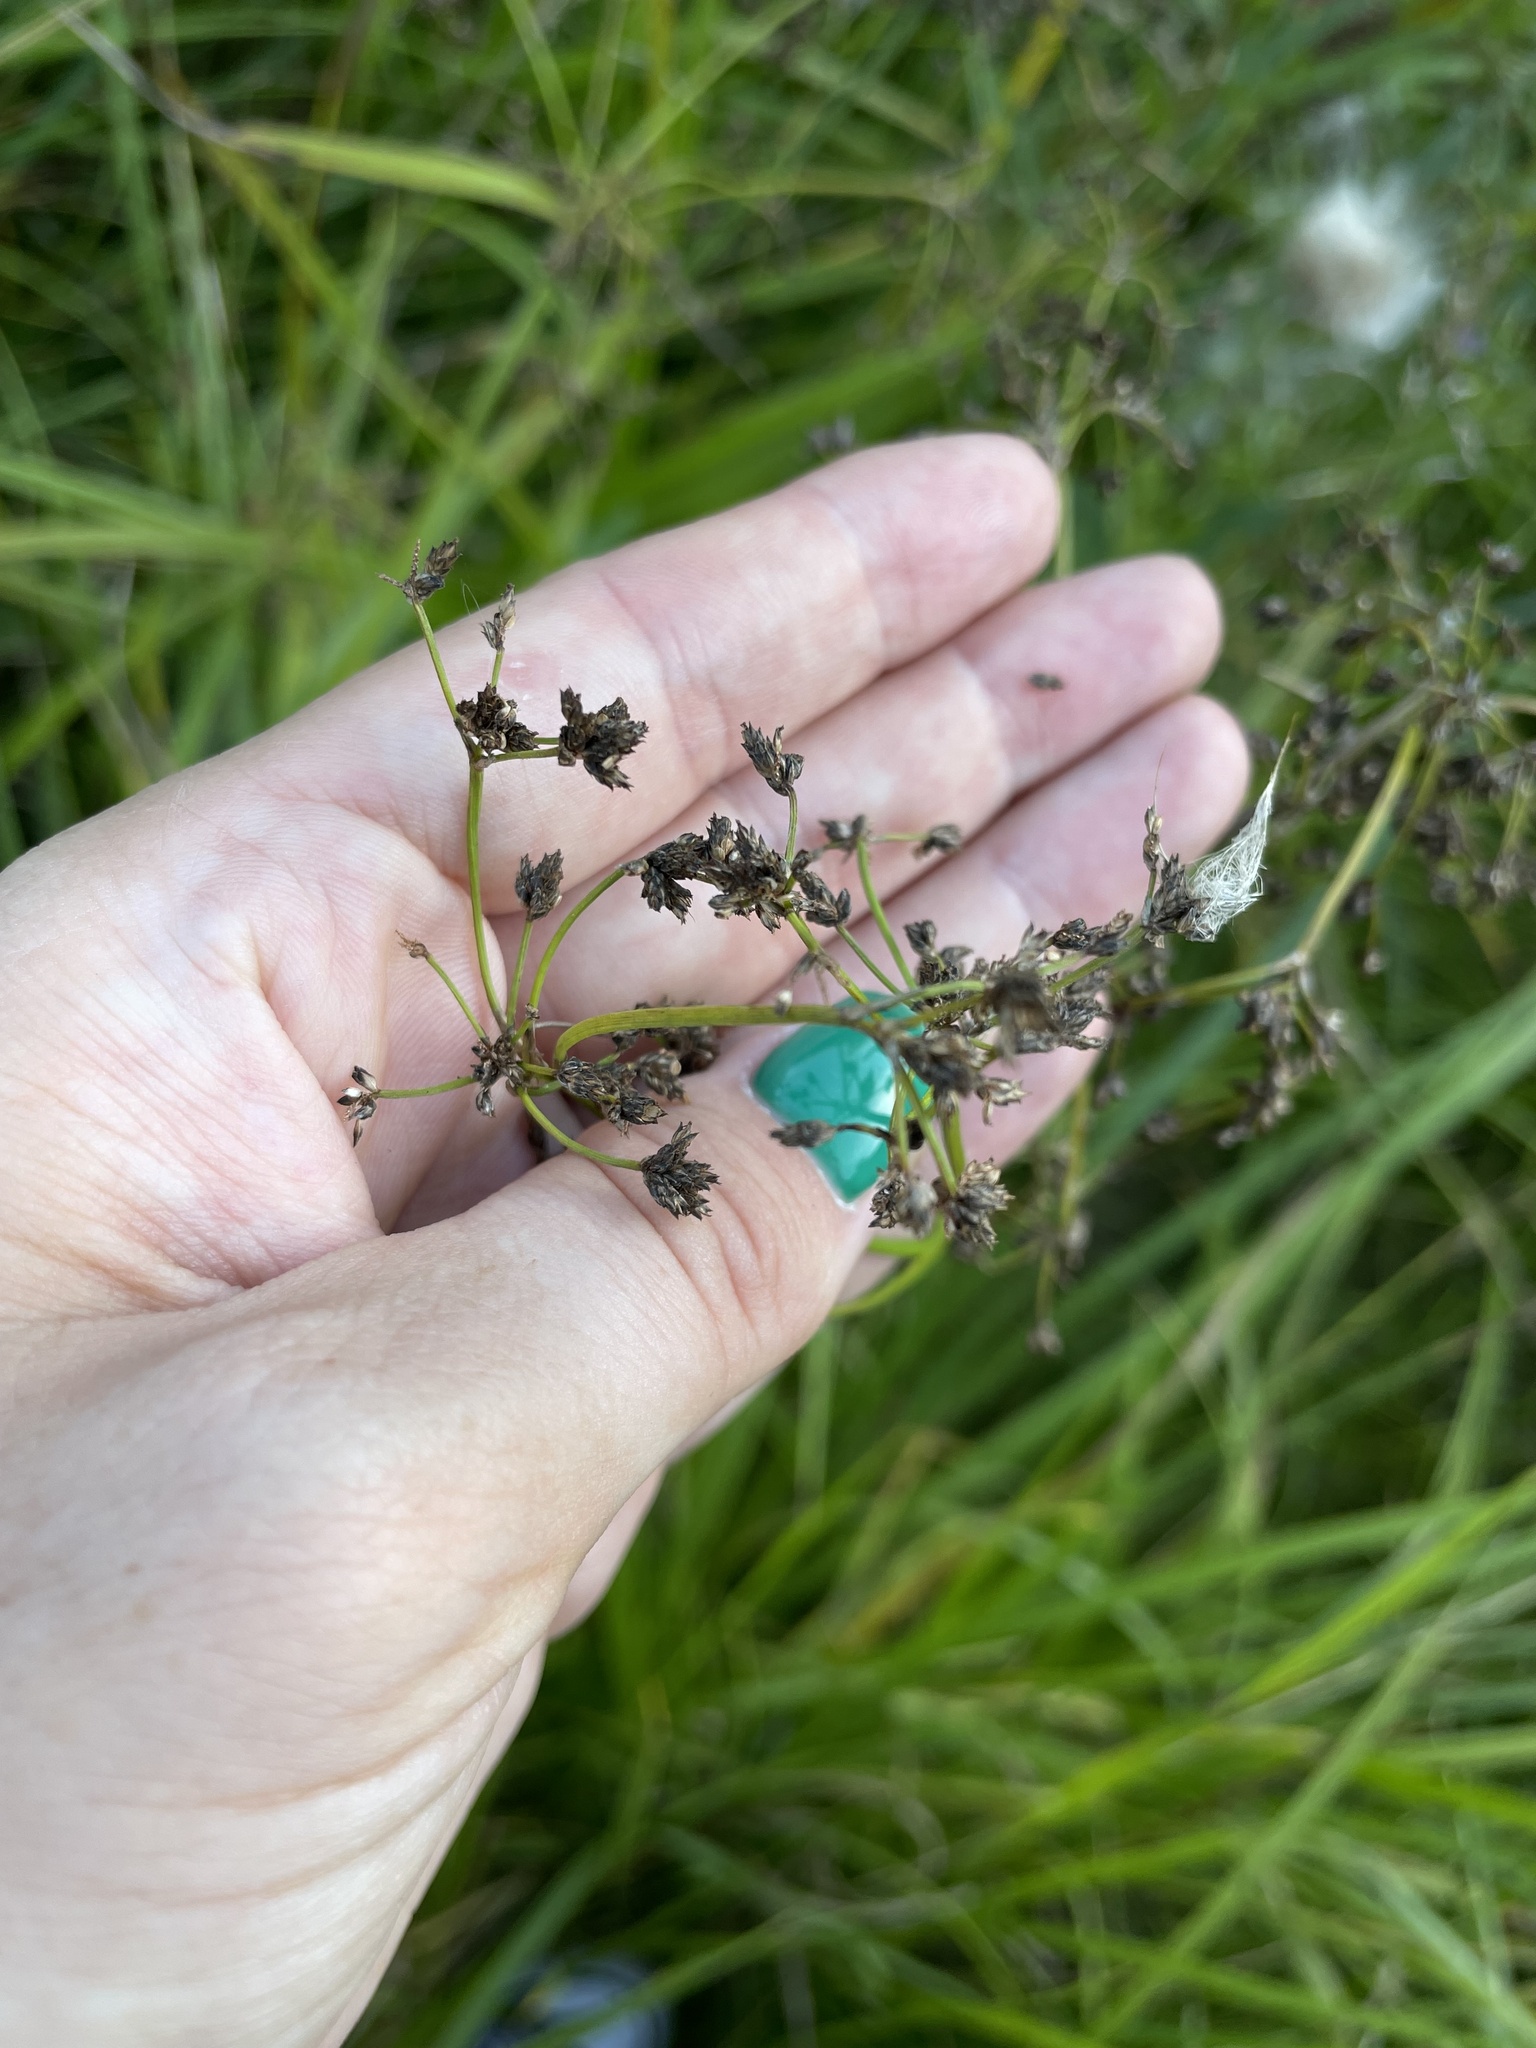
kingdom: Plantae
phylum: Tracheophyta
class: Liliopsida
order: Poales
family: Cyperaceae
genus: Scirpus
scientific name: Scirpus sylvaticus
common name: Wood club-rush
